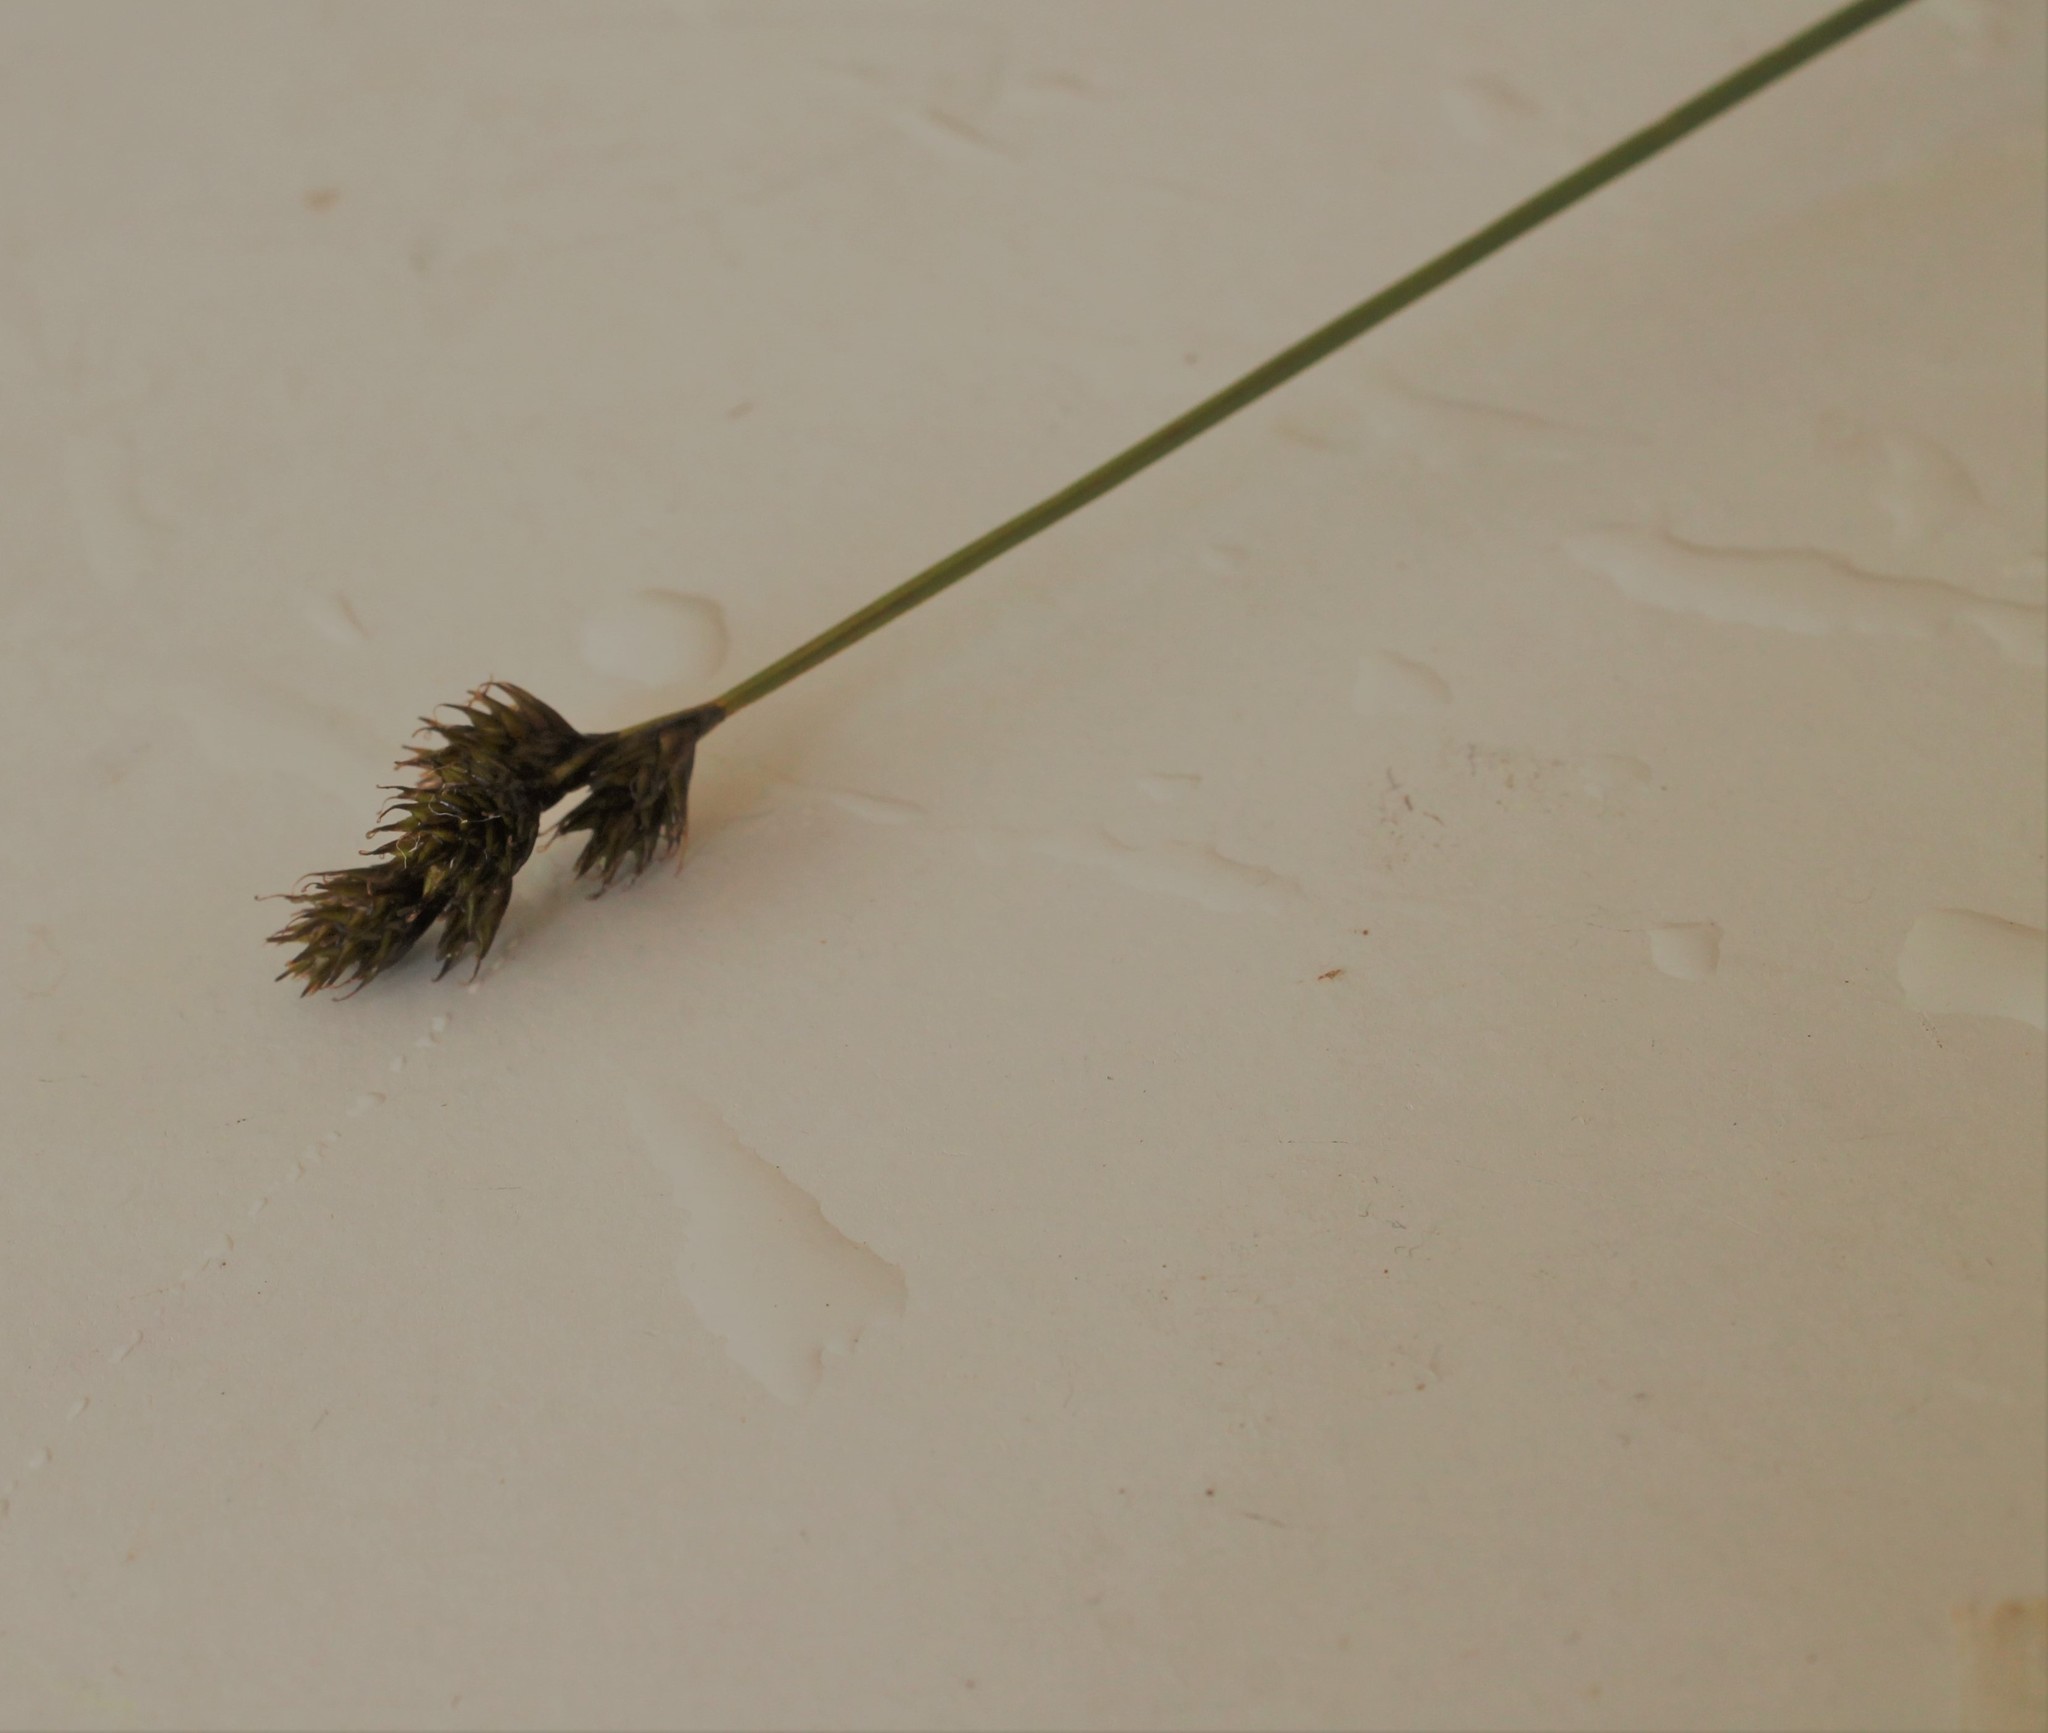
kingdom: Plantae
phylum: Tracheophyta
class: Liliopsida
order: Poales
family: Cyperaceae
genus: Carex
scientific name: Carex leporina
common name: Oval sedge
